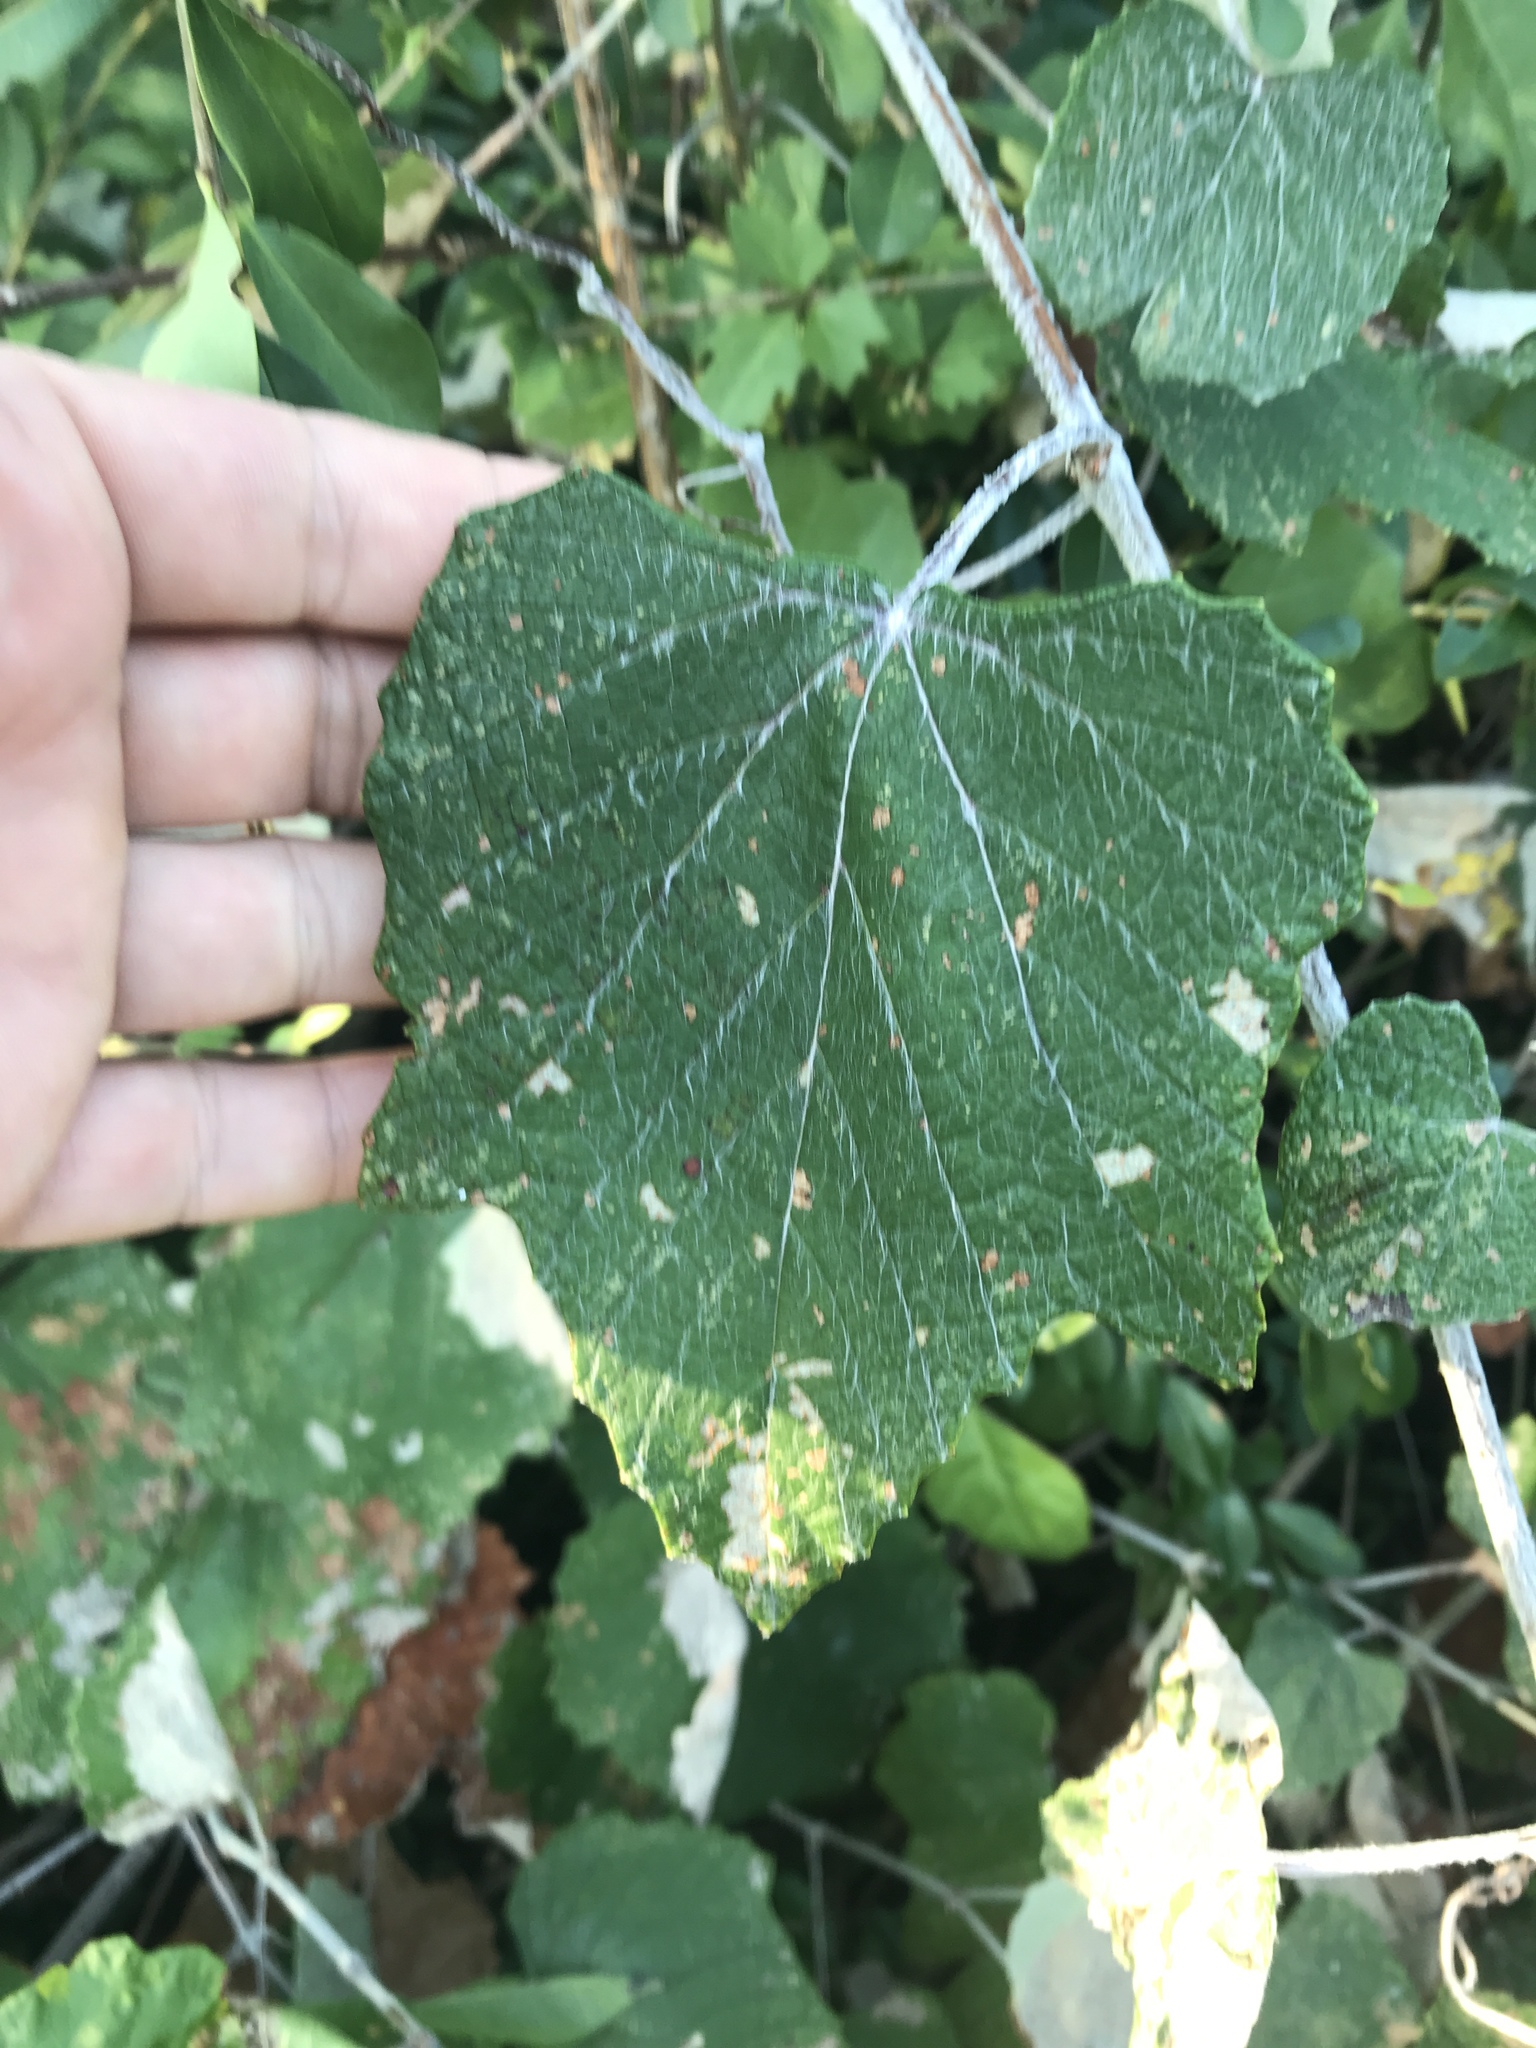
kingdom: Plantae
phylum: Tracheophyta
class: Magnoliopsida
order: Vitales
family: Vitaceae
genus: Vitis
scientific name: Vitis mustangensis
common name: Mustang grape
